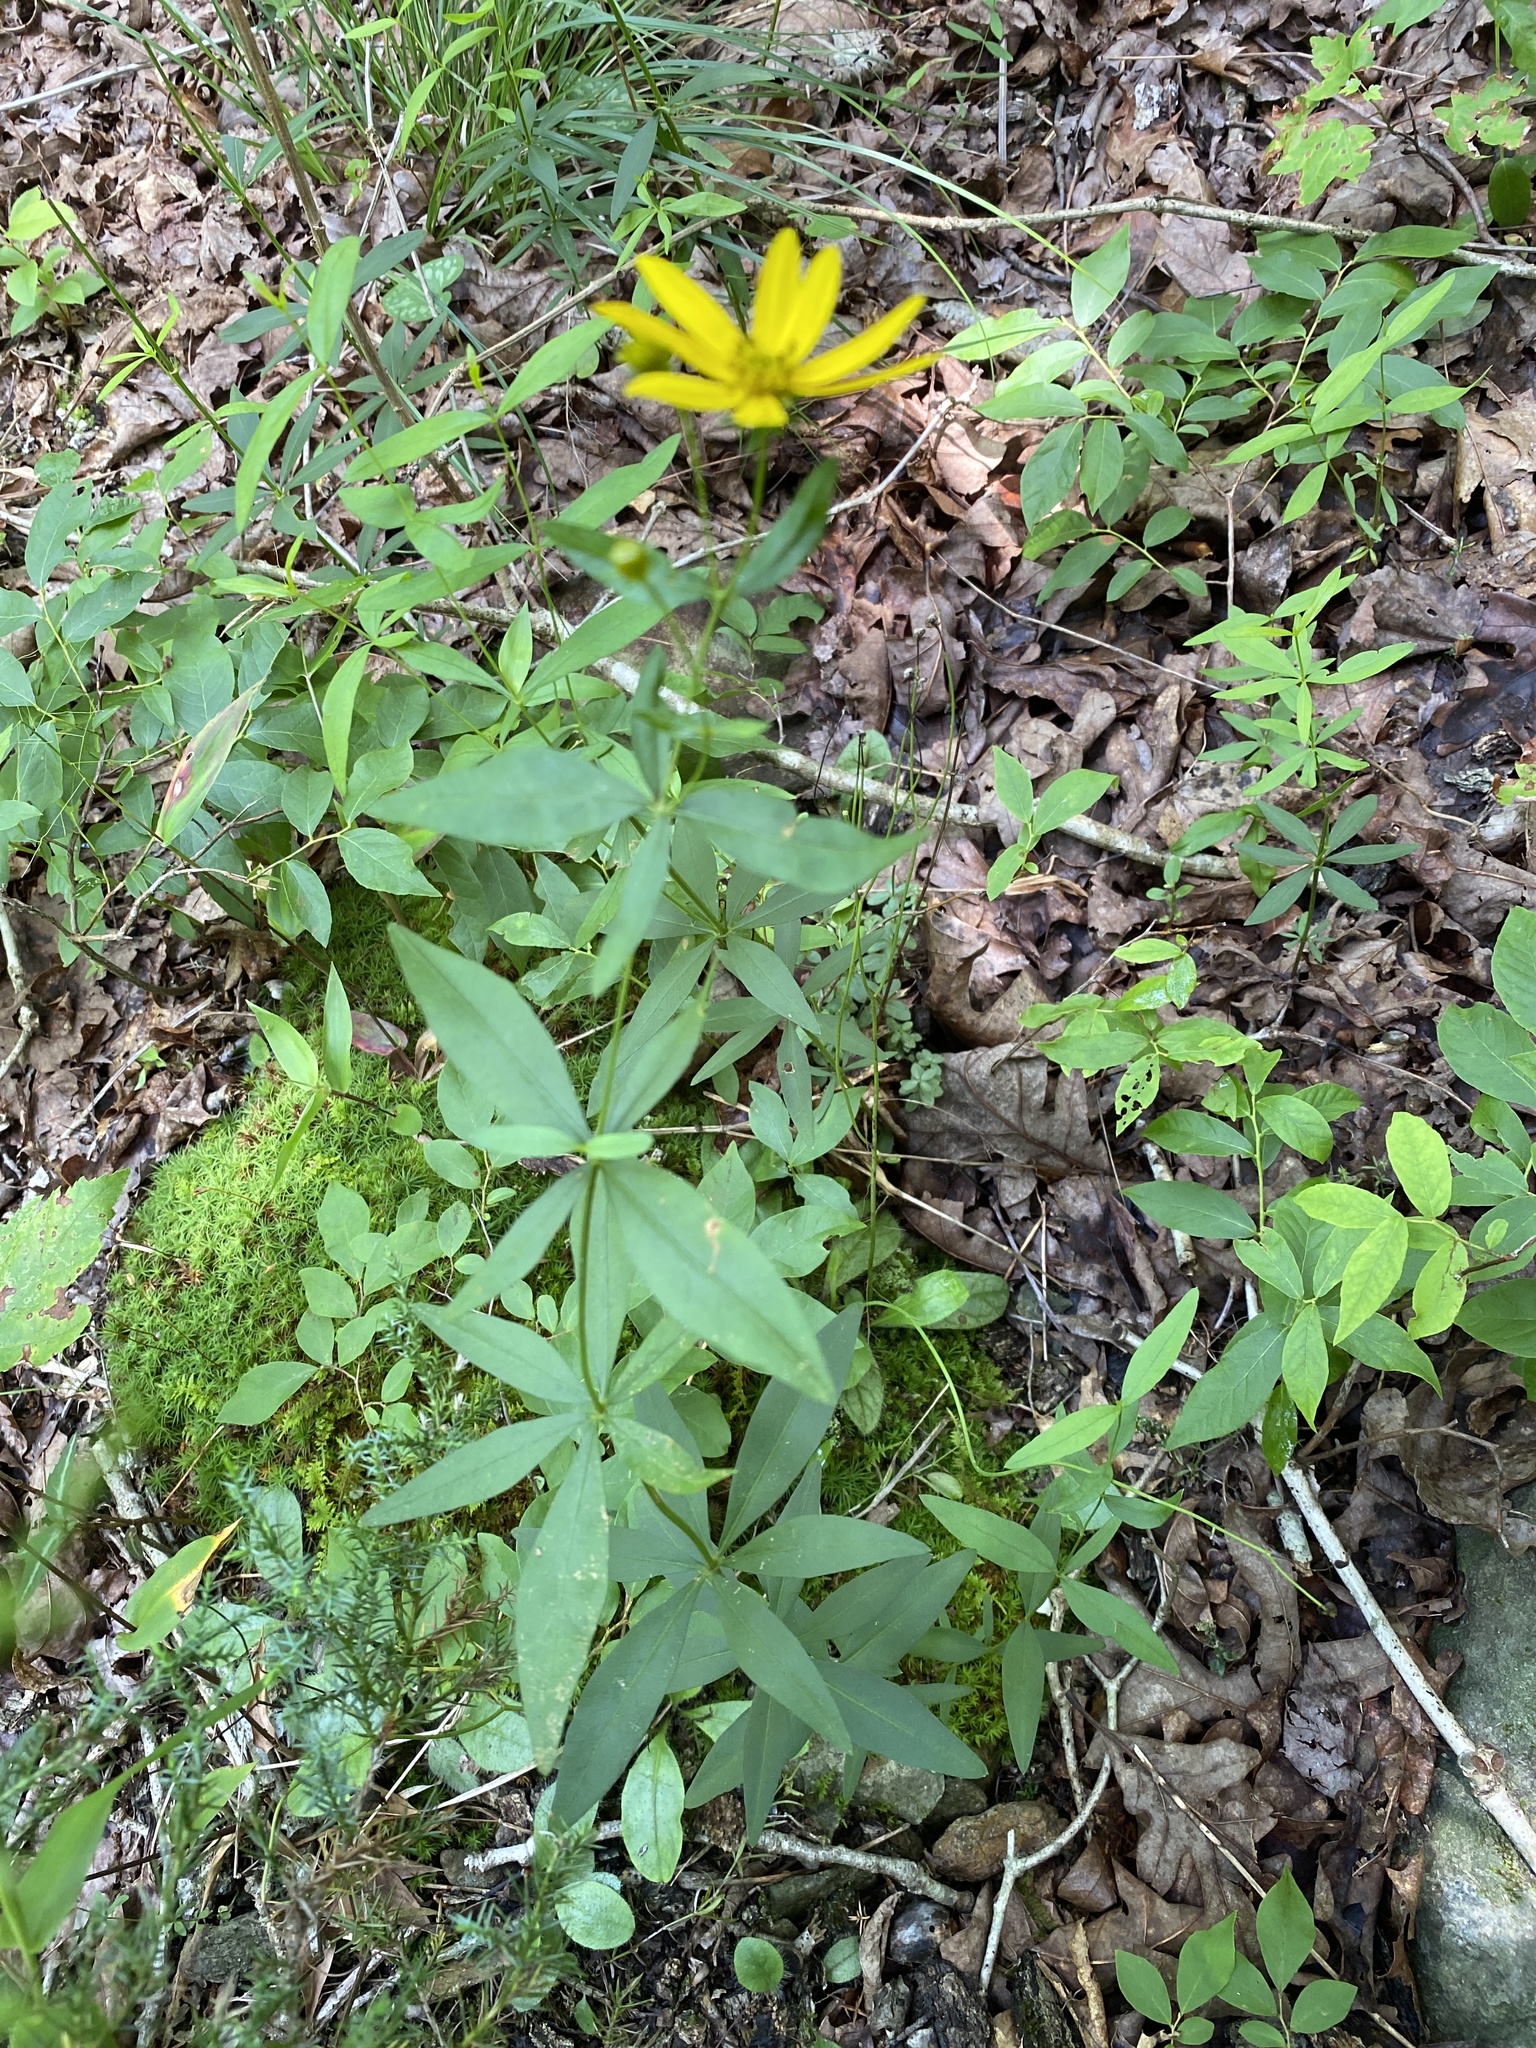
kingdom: Plantae
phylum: Tracheophyta
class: Magnoliopsida
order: Asterales
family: Asteraceae
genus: Coreopsis
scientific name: Coreopsis major
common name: Forest tickseed
